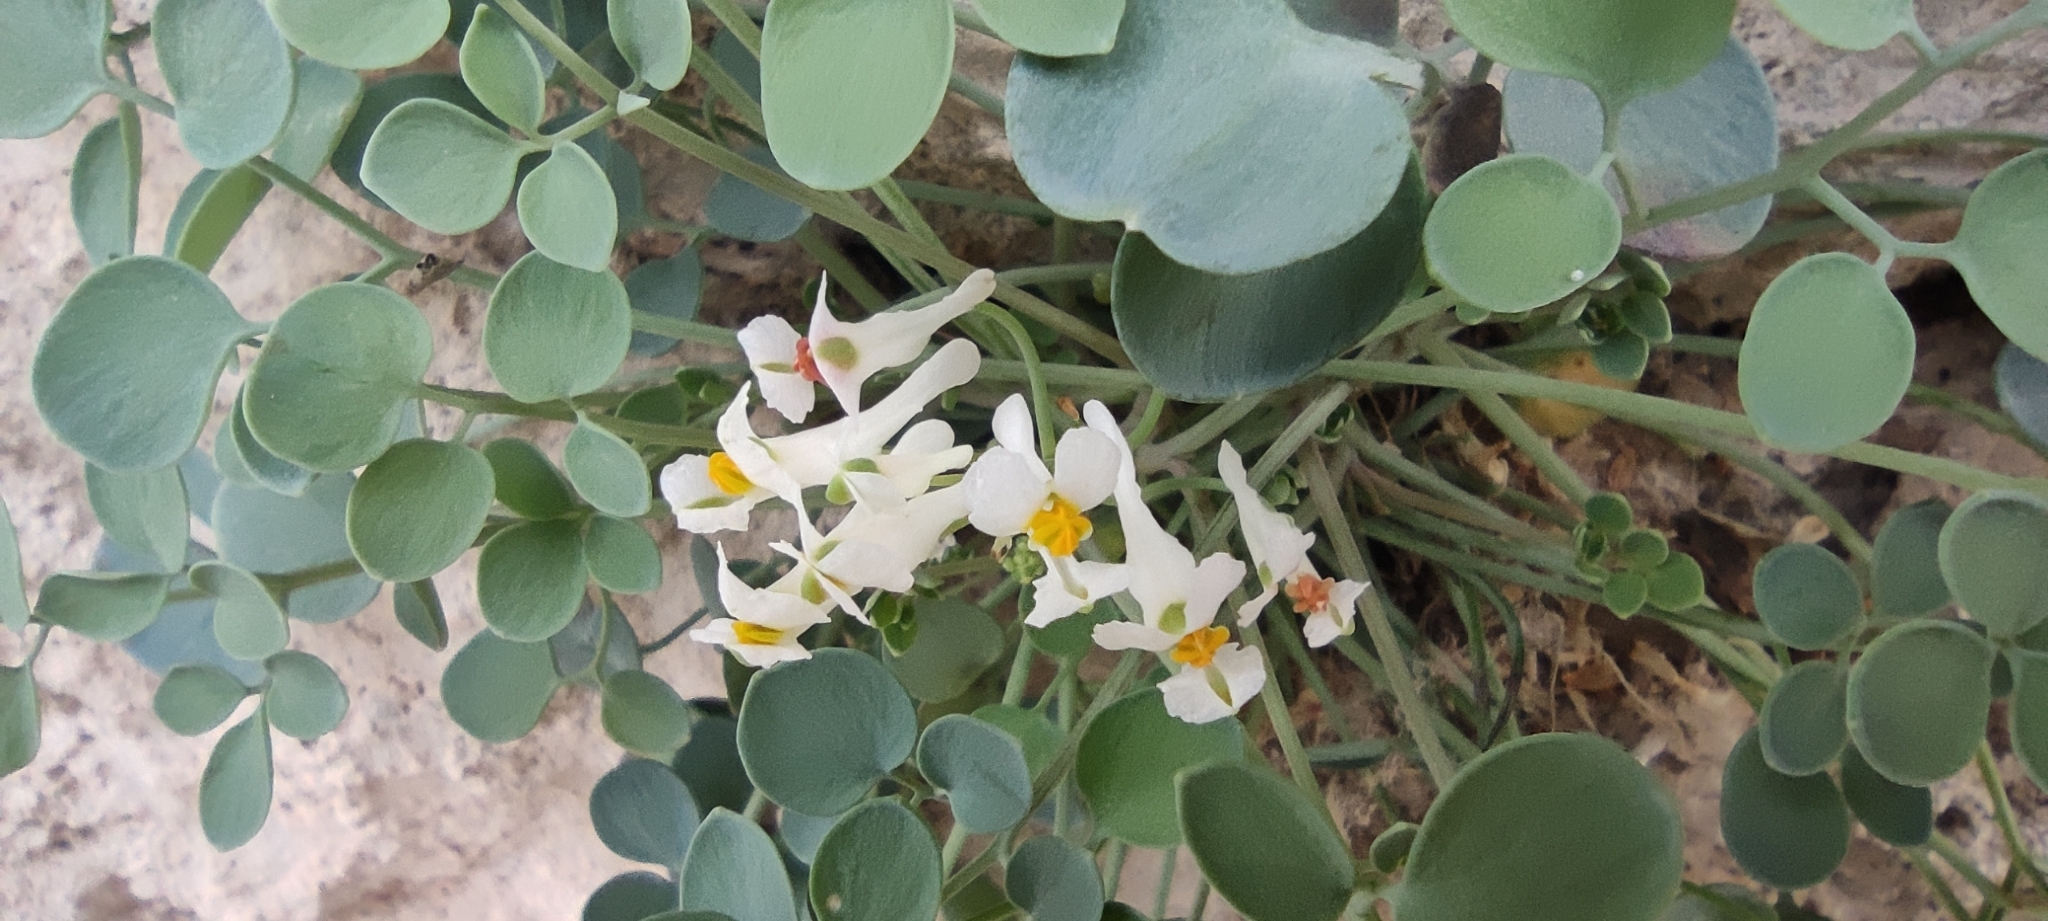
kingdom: Plantae
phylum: Tracheophyta
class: Magnoliopsida
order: Ranunculales
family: Papaveraceae
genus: Sarcocapnos
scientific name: Sarcocapnos enneaphylla
